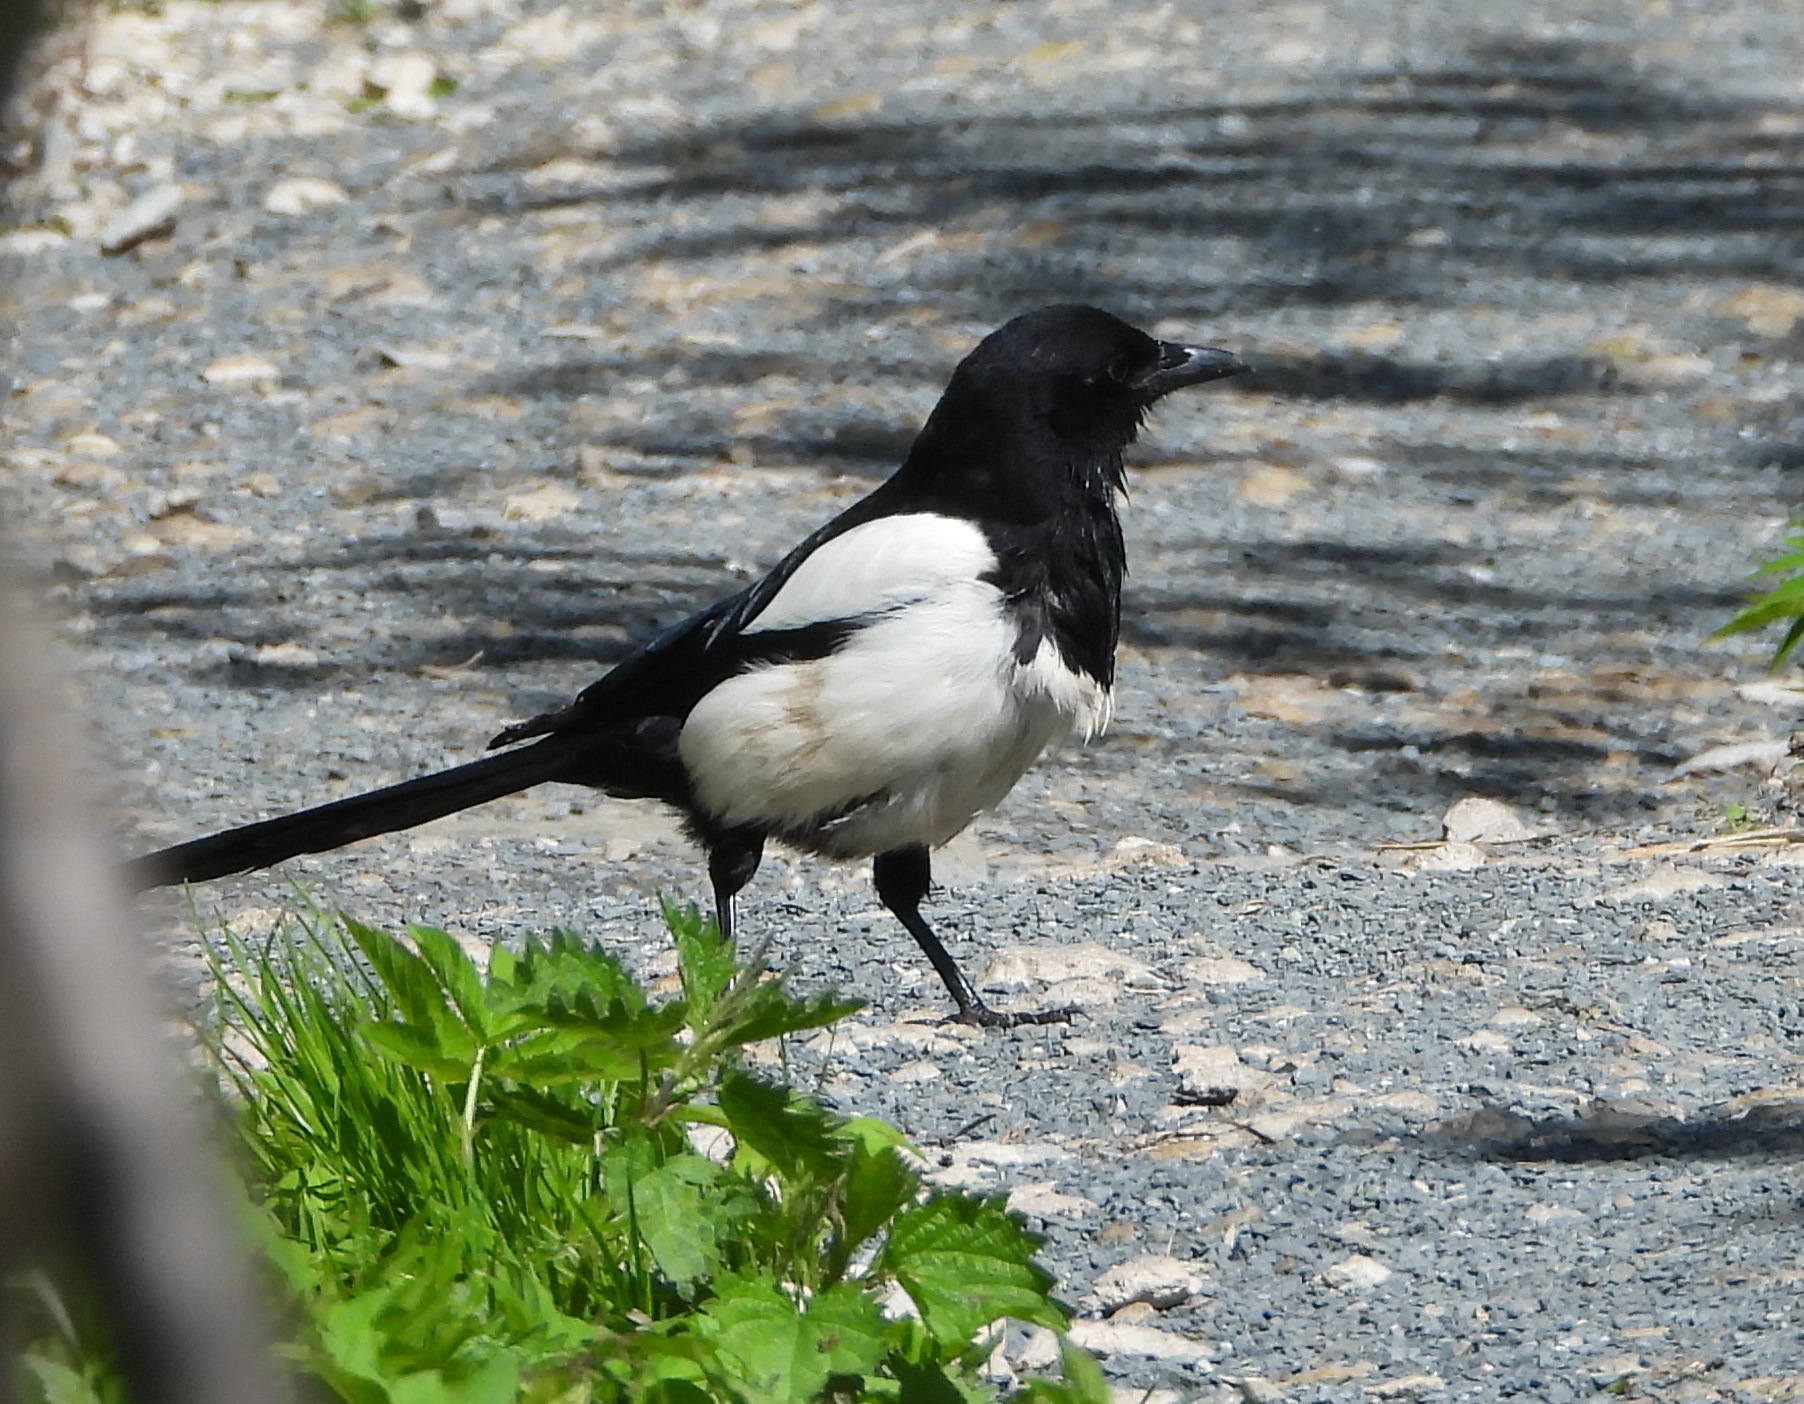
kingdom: Animalia
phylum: Chordata
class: Aves
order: Passeriformes
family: Corvidae
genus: Pica
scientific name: Pica pica
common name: Eurasian magpie
